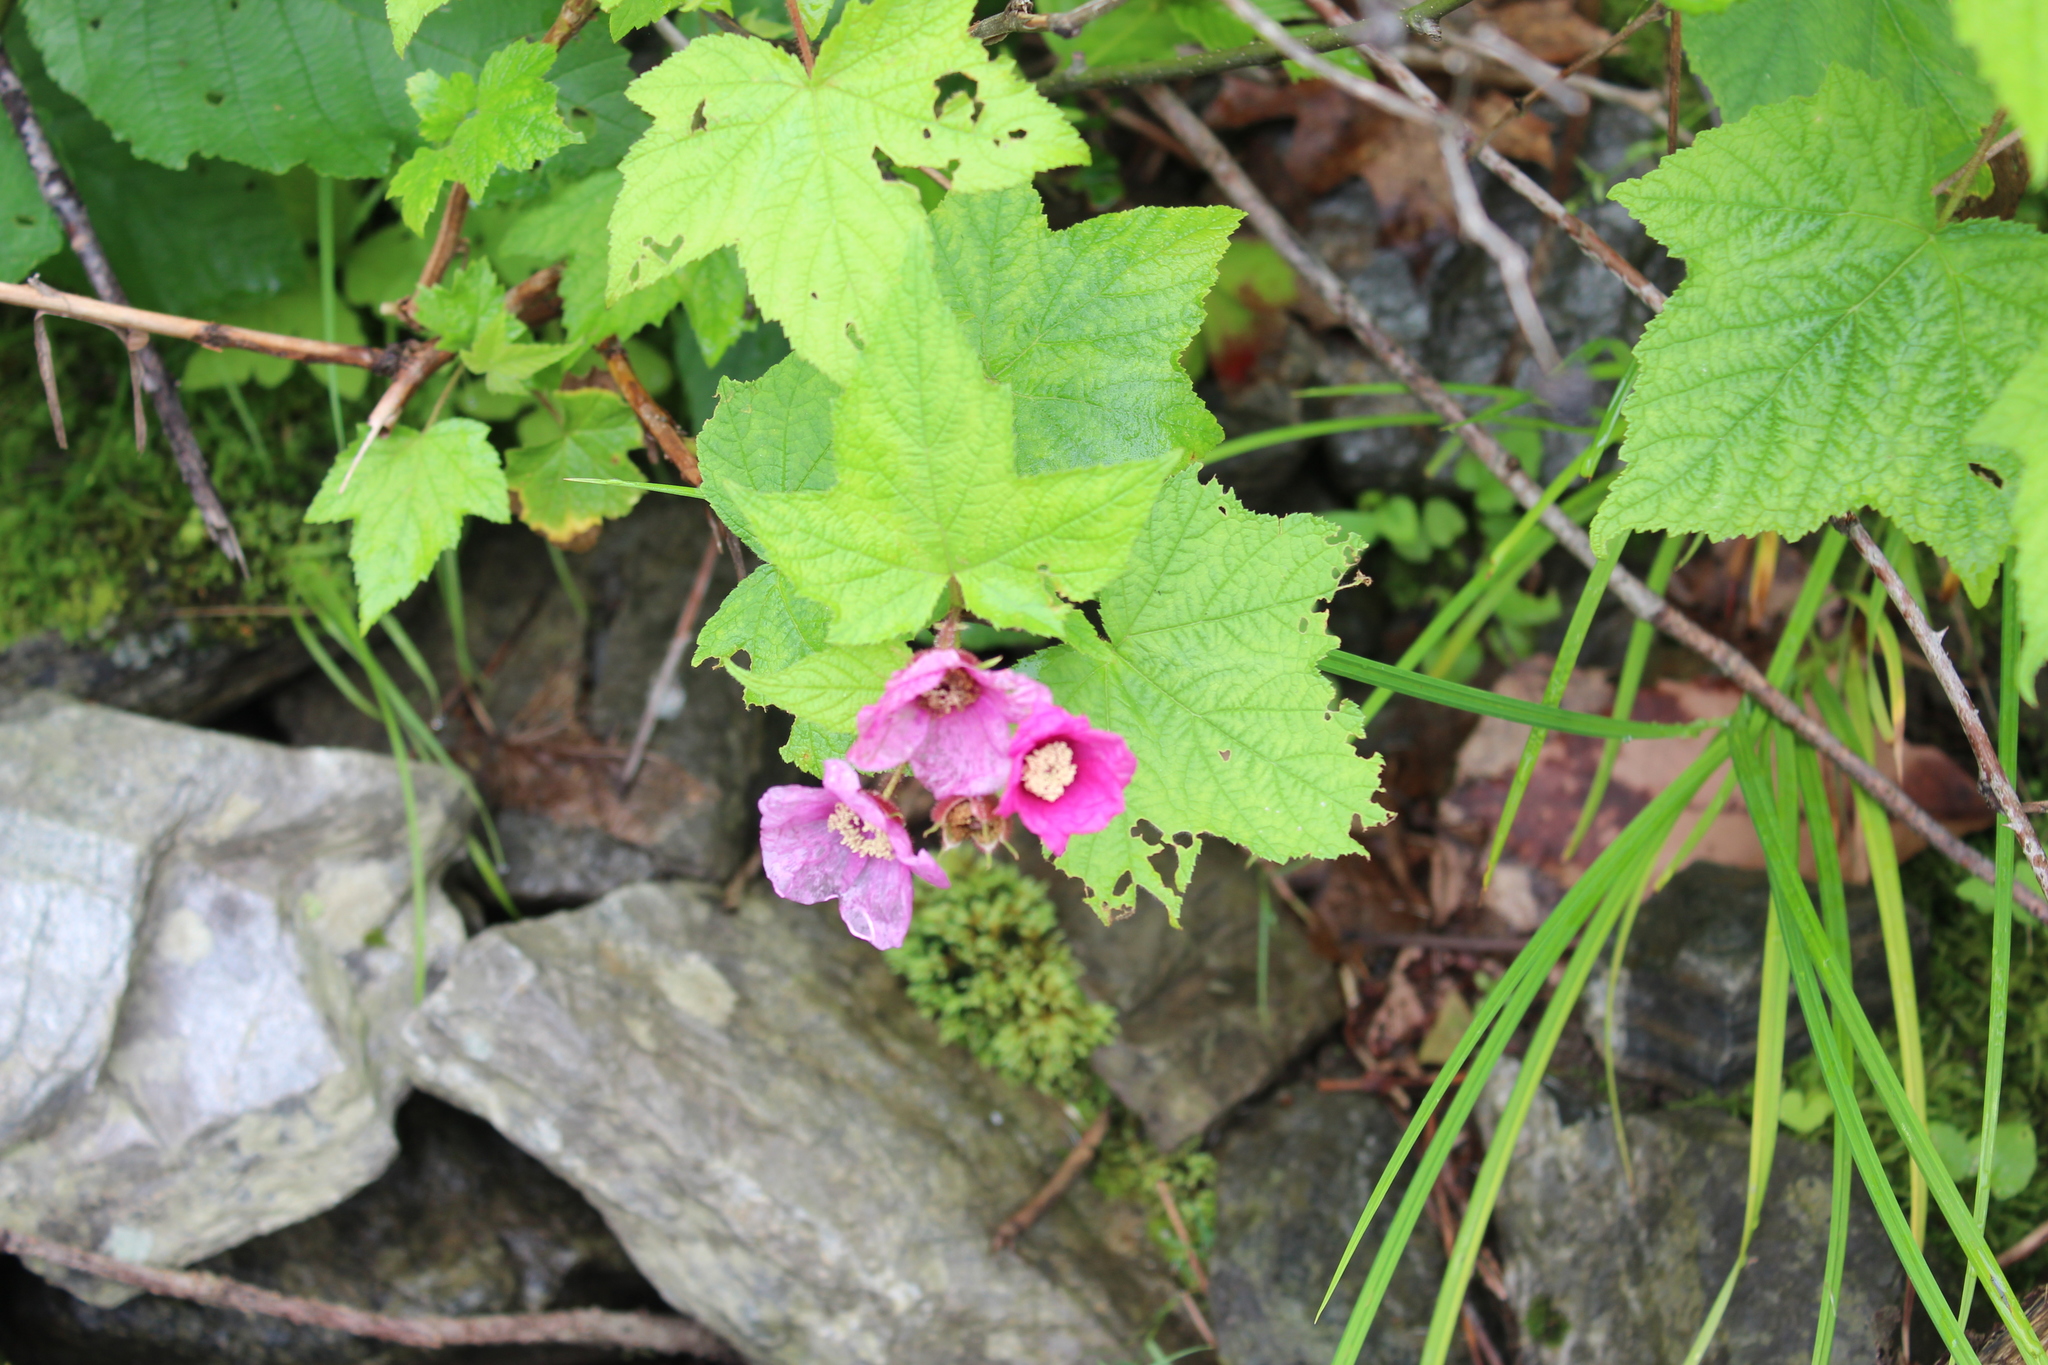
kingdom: Plantae
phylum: Tracheophyta
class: Magnoliopsida
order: Rosales
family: Rosaceae
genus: Rubus
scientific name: Rubus odoratus
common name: Purple-flowered raspberry
